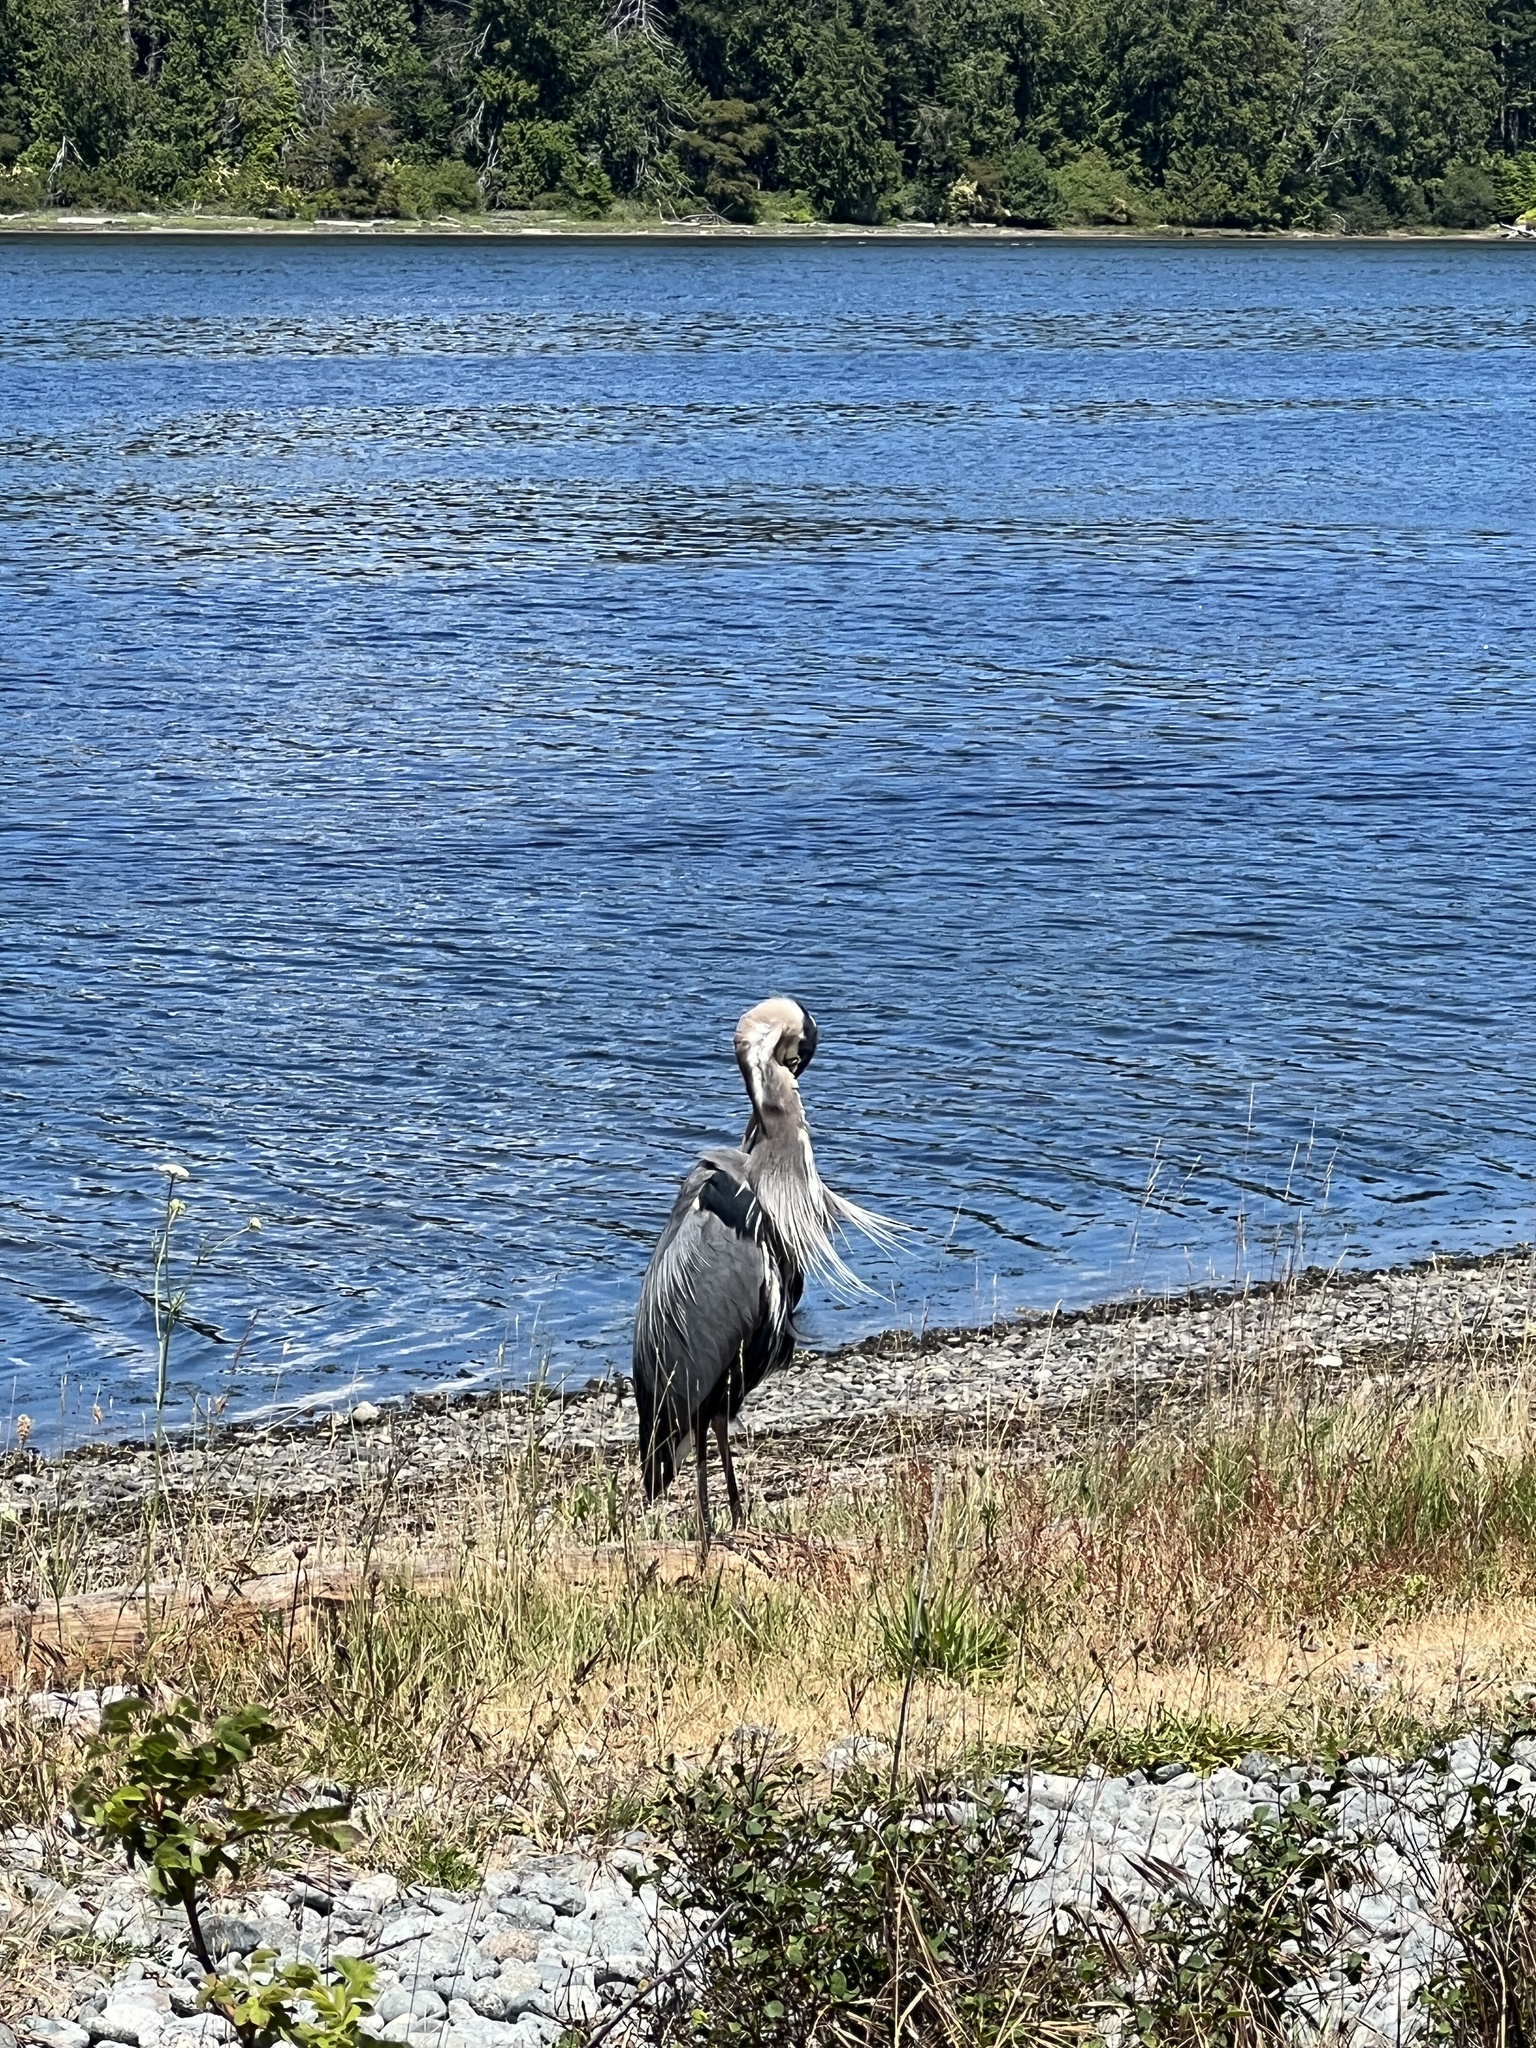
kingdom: Animalia
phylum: Chordata
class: Aves
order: Pelecaniformes
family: Ardeidae
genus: Ardea
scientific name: Ardea herodias
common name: Great blue heron
